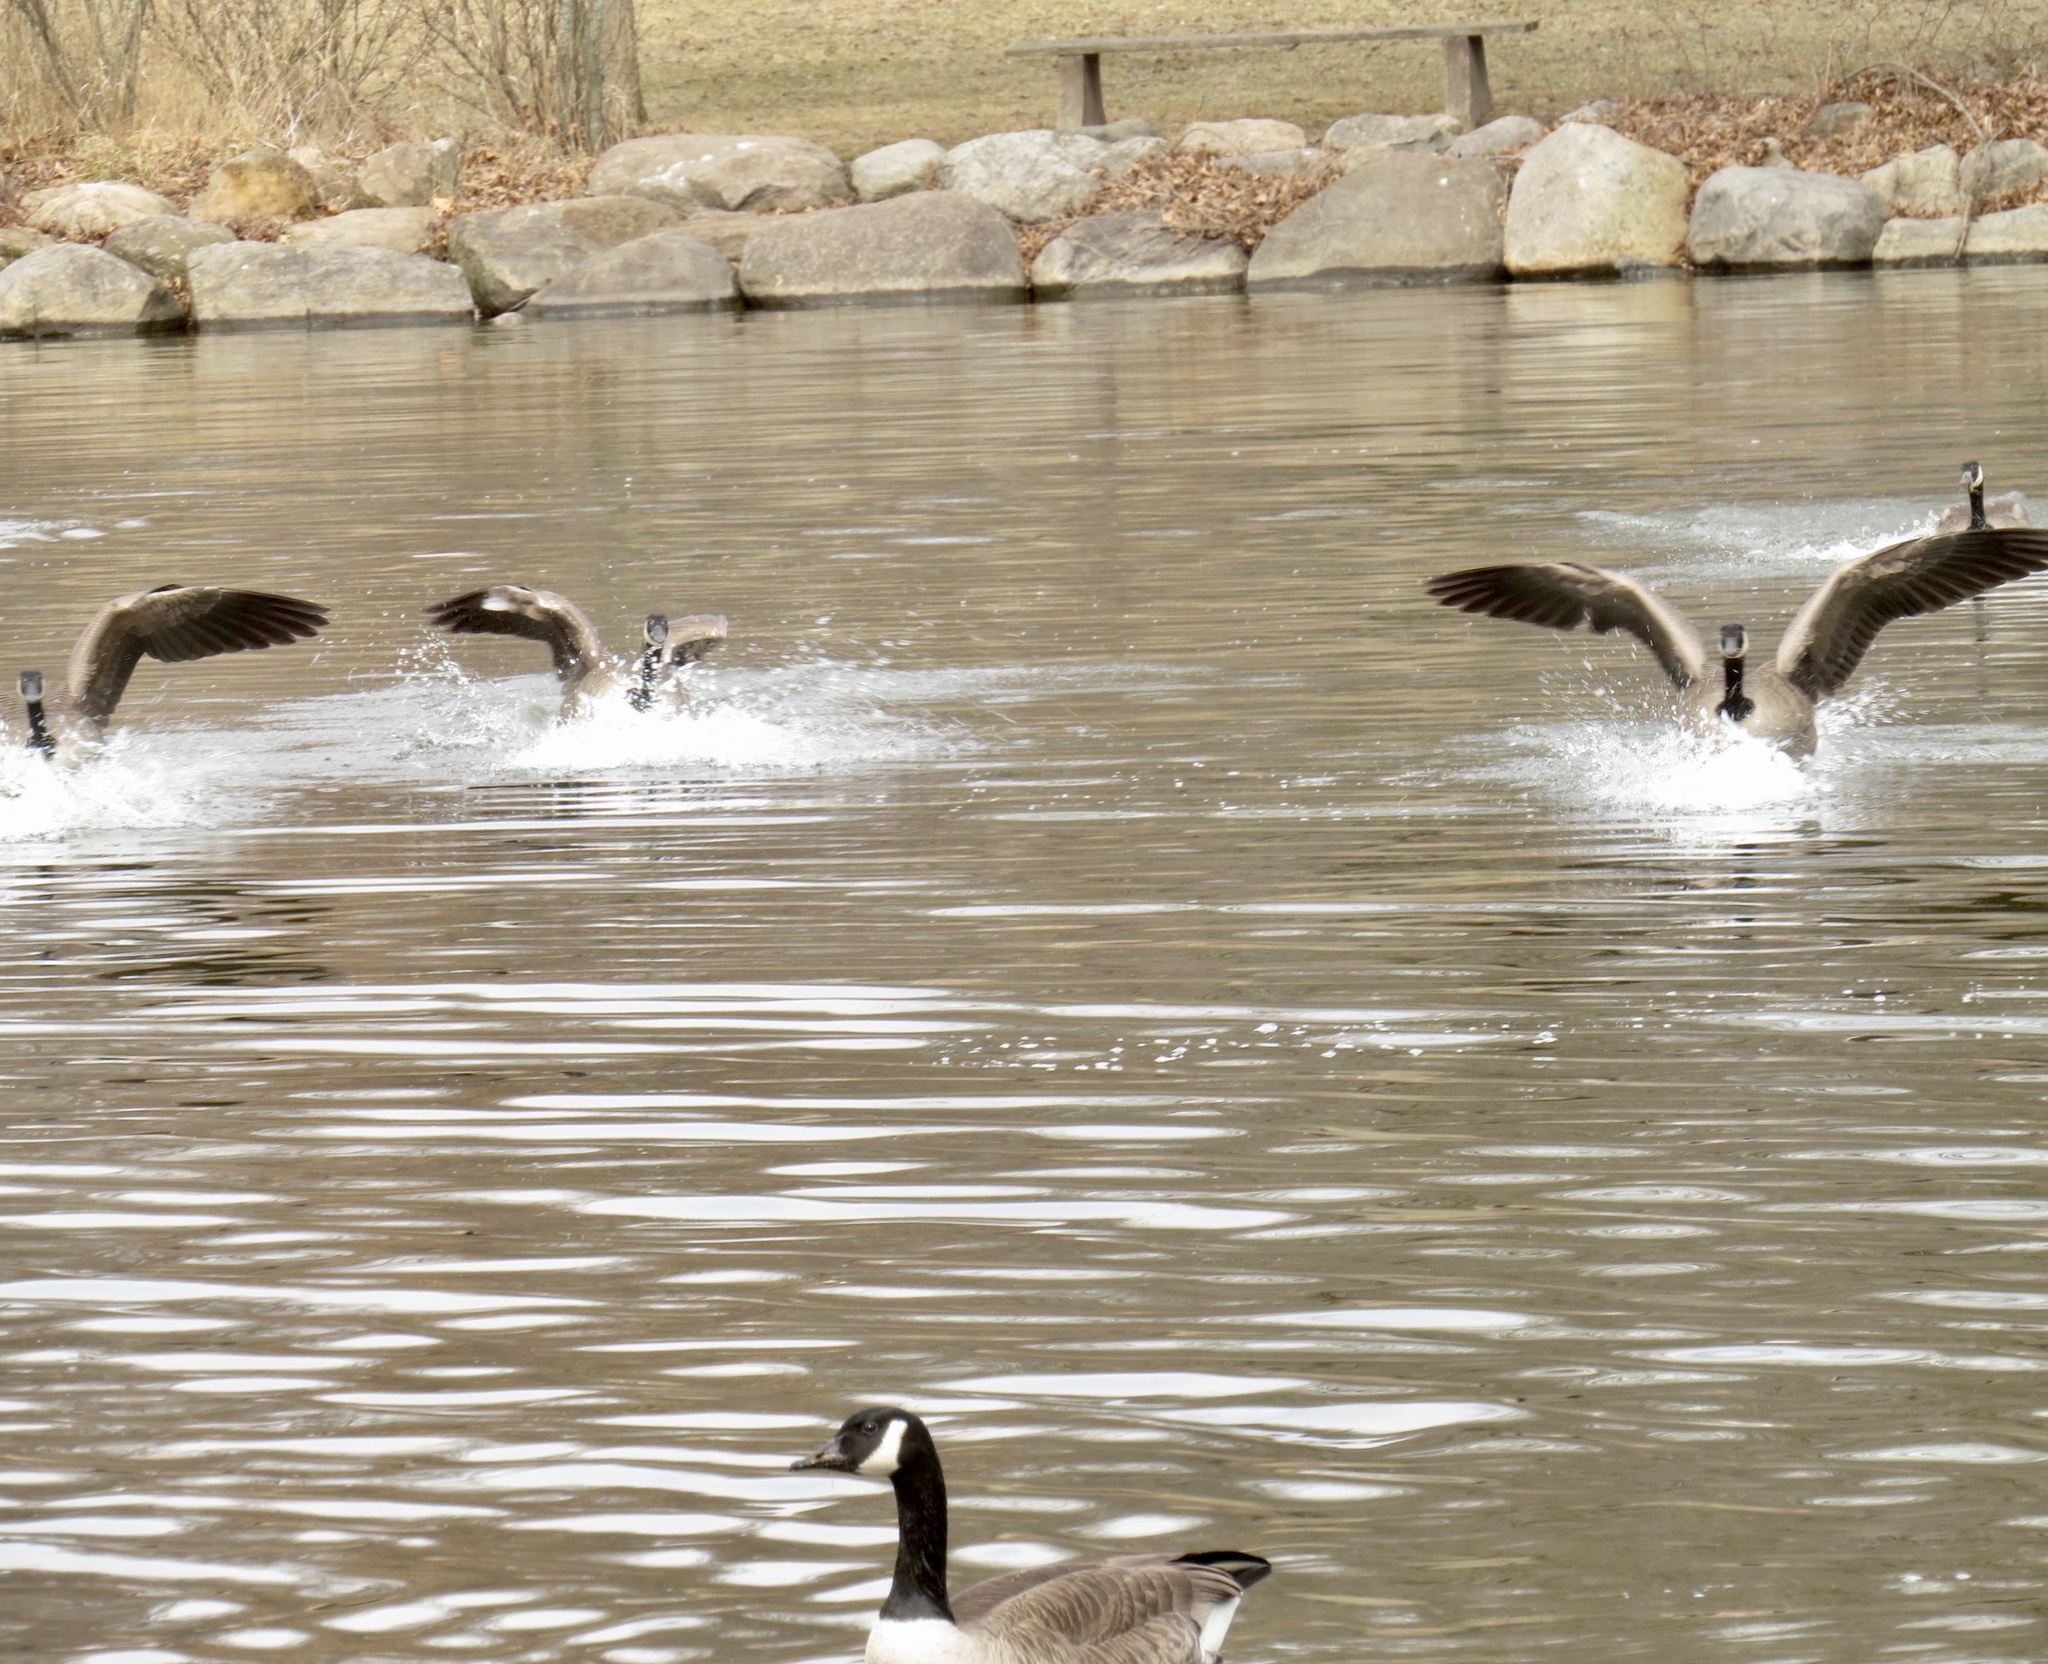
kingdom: Animalia
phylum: Chordata
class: Aves
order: Anseriformes
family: Anatidae
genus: Branta
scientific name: Branta canadensis
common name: Canada goose
